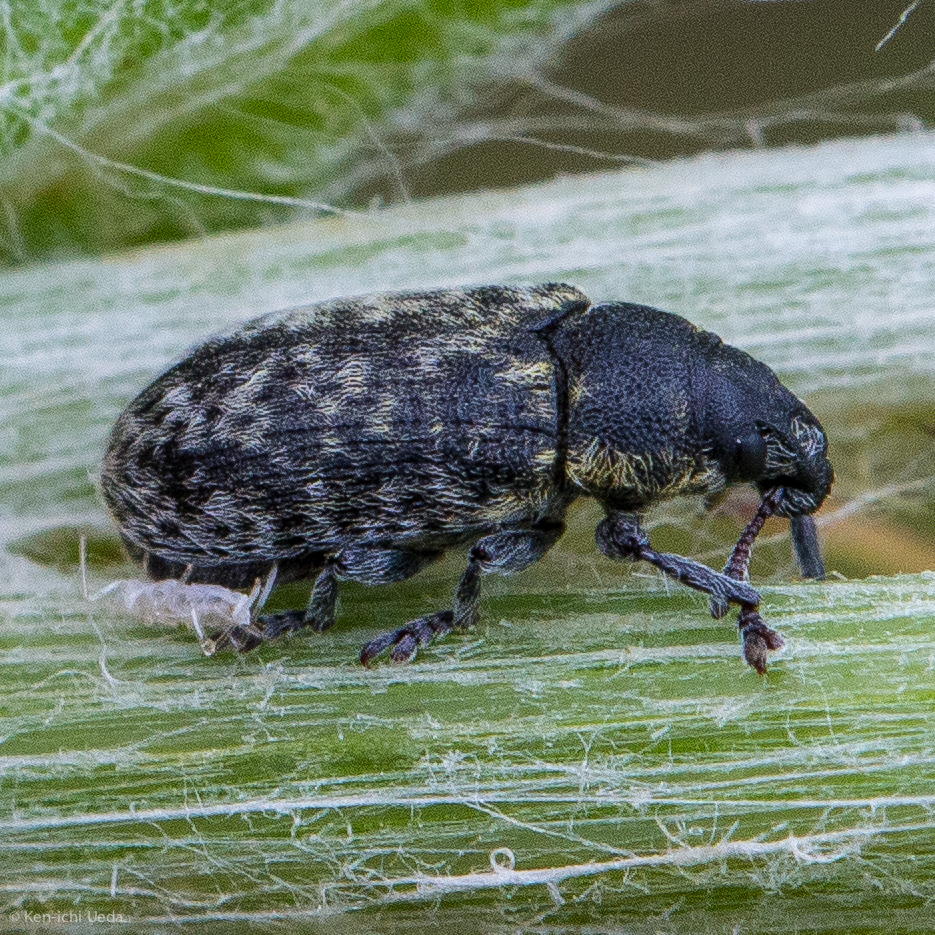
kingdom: Animalia
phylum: Arthropoda
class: Insecta
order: Coleoptera
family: Curculionidae
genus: Rhinocyllus
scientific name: Rhinocyllus conicus
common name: Weevil
